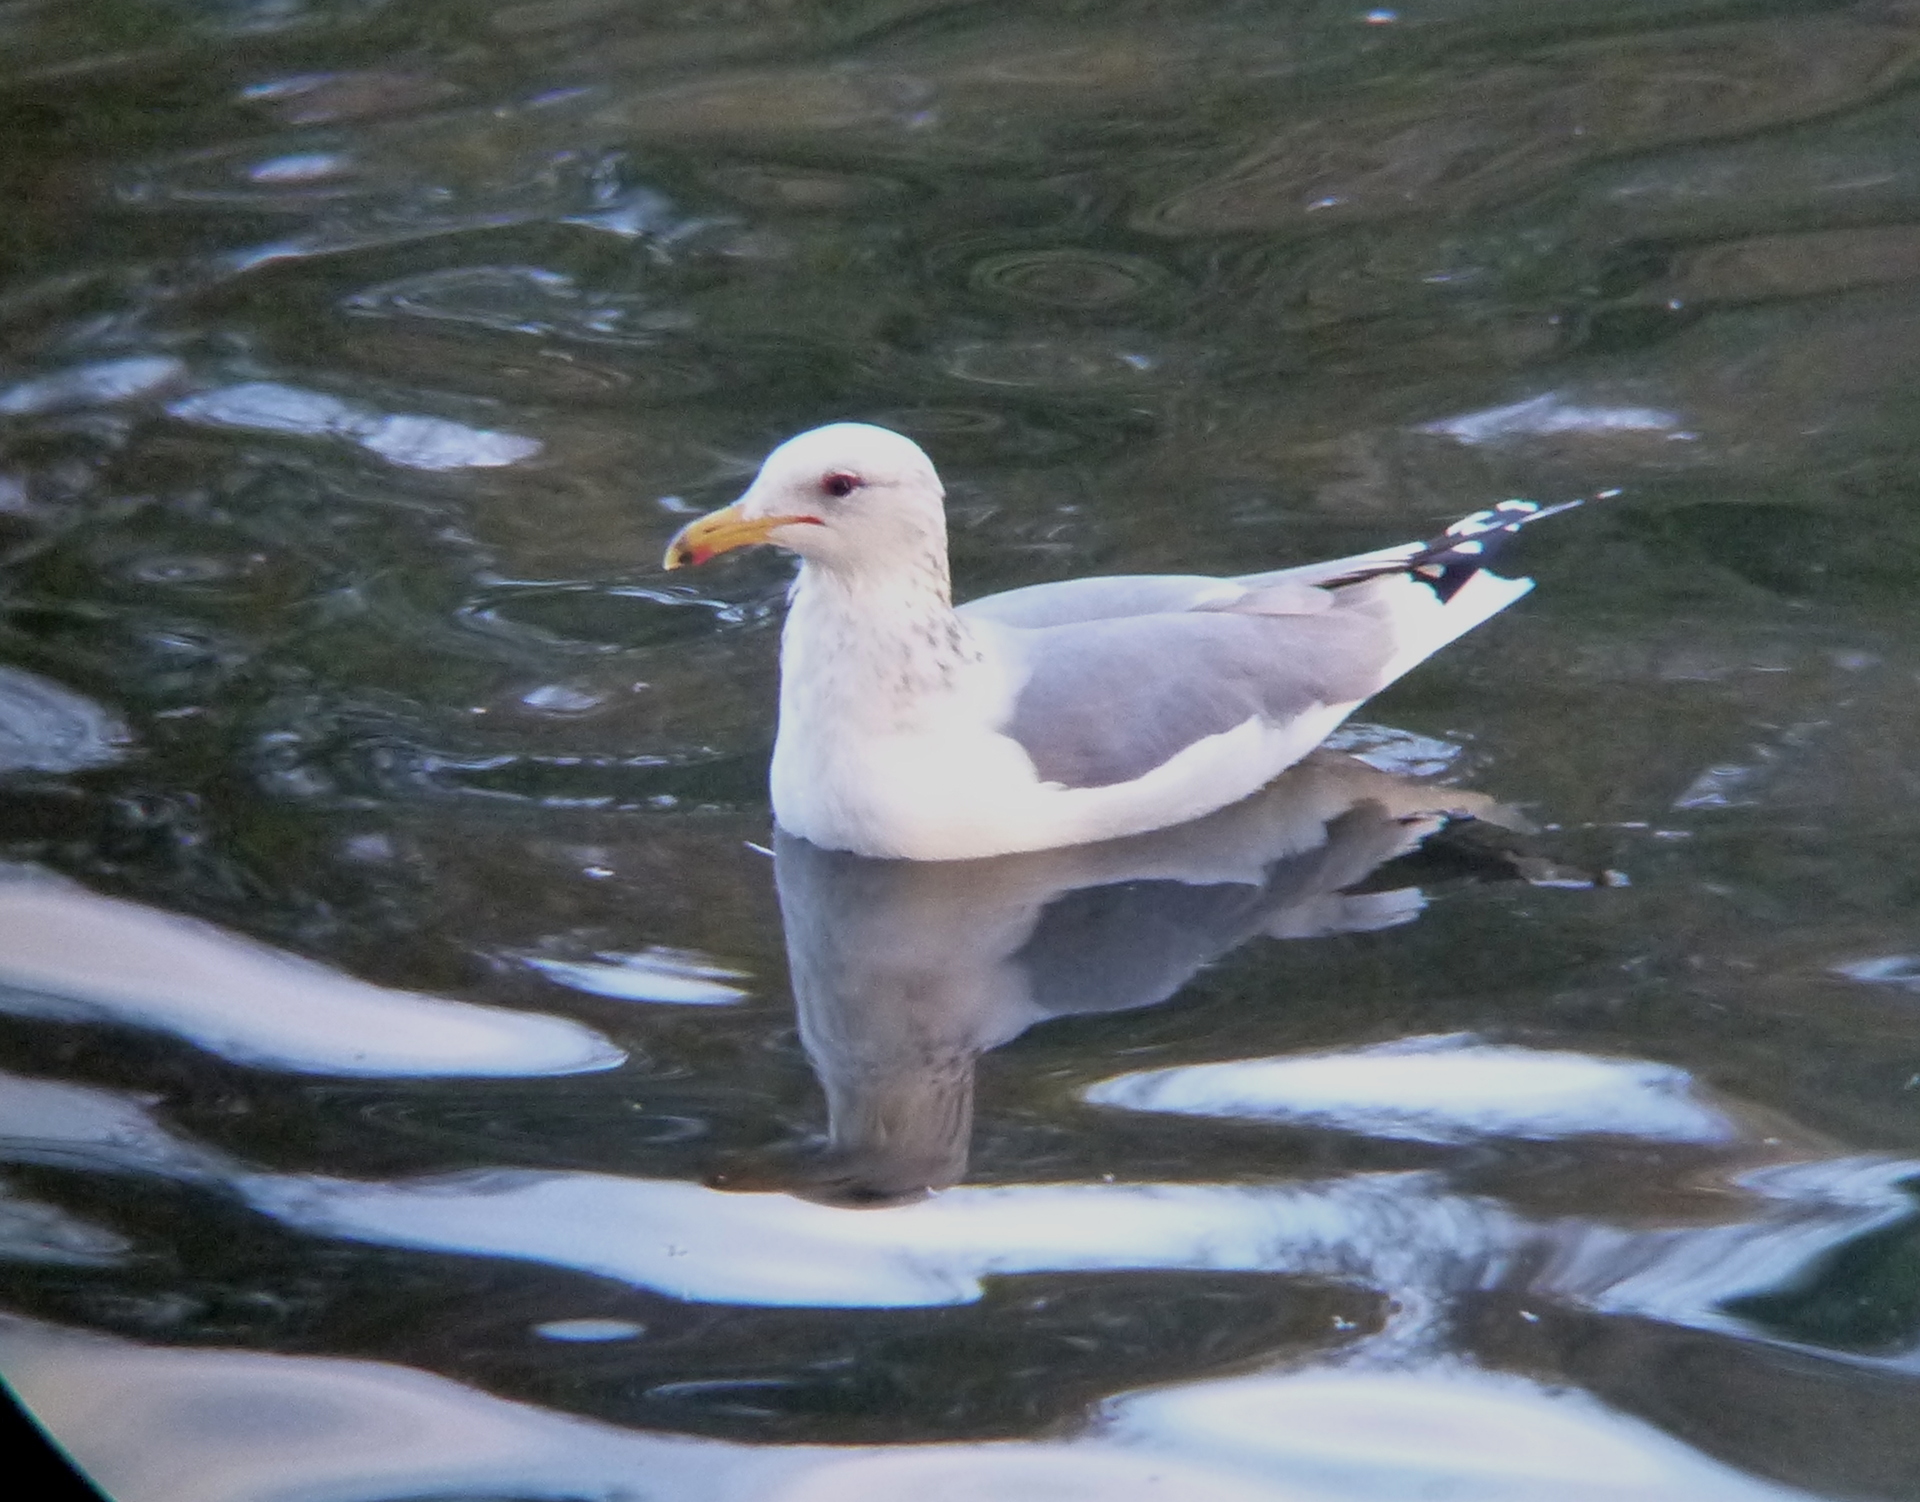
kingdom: Animalia
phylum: Chordata
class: Aves
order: Charadriiformes
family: Laridae
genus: Larus
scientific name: Larus californicus
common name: California gull
